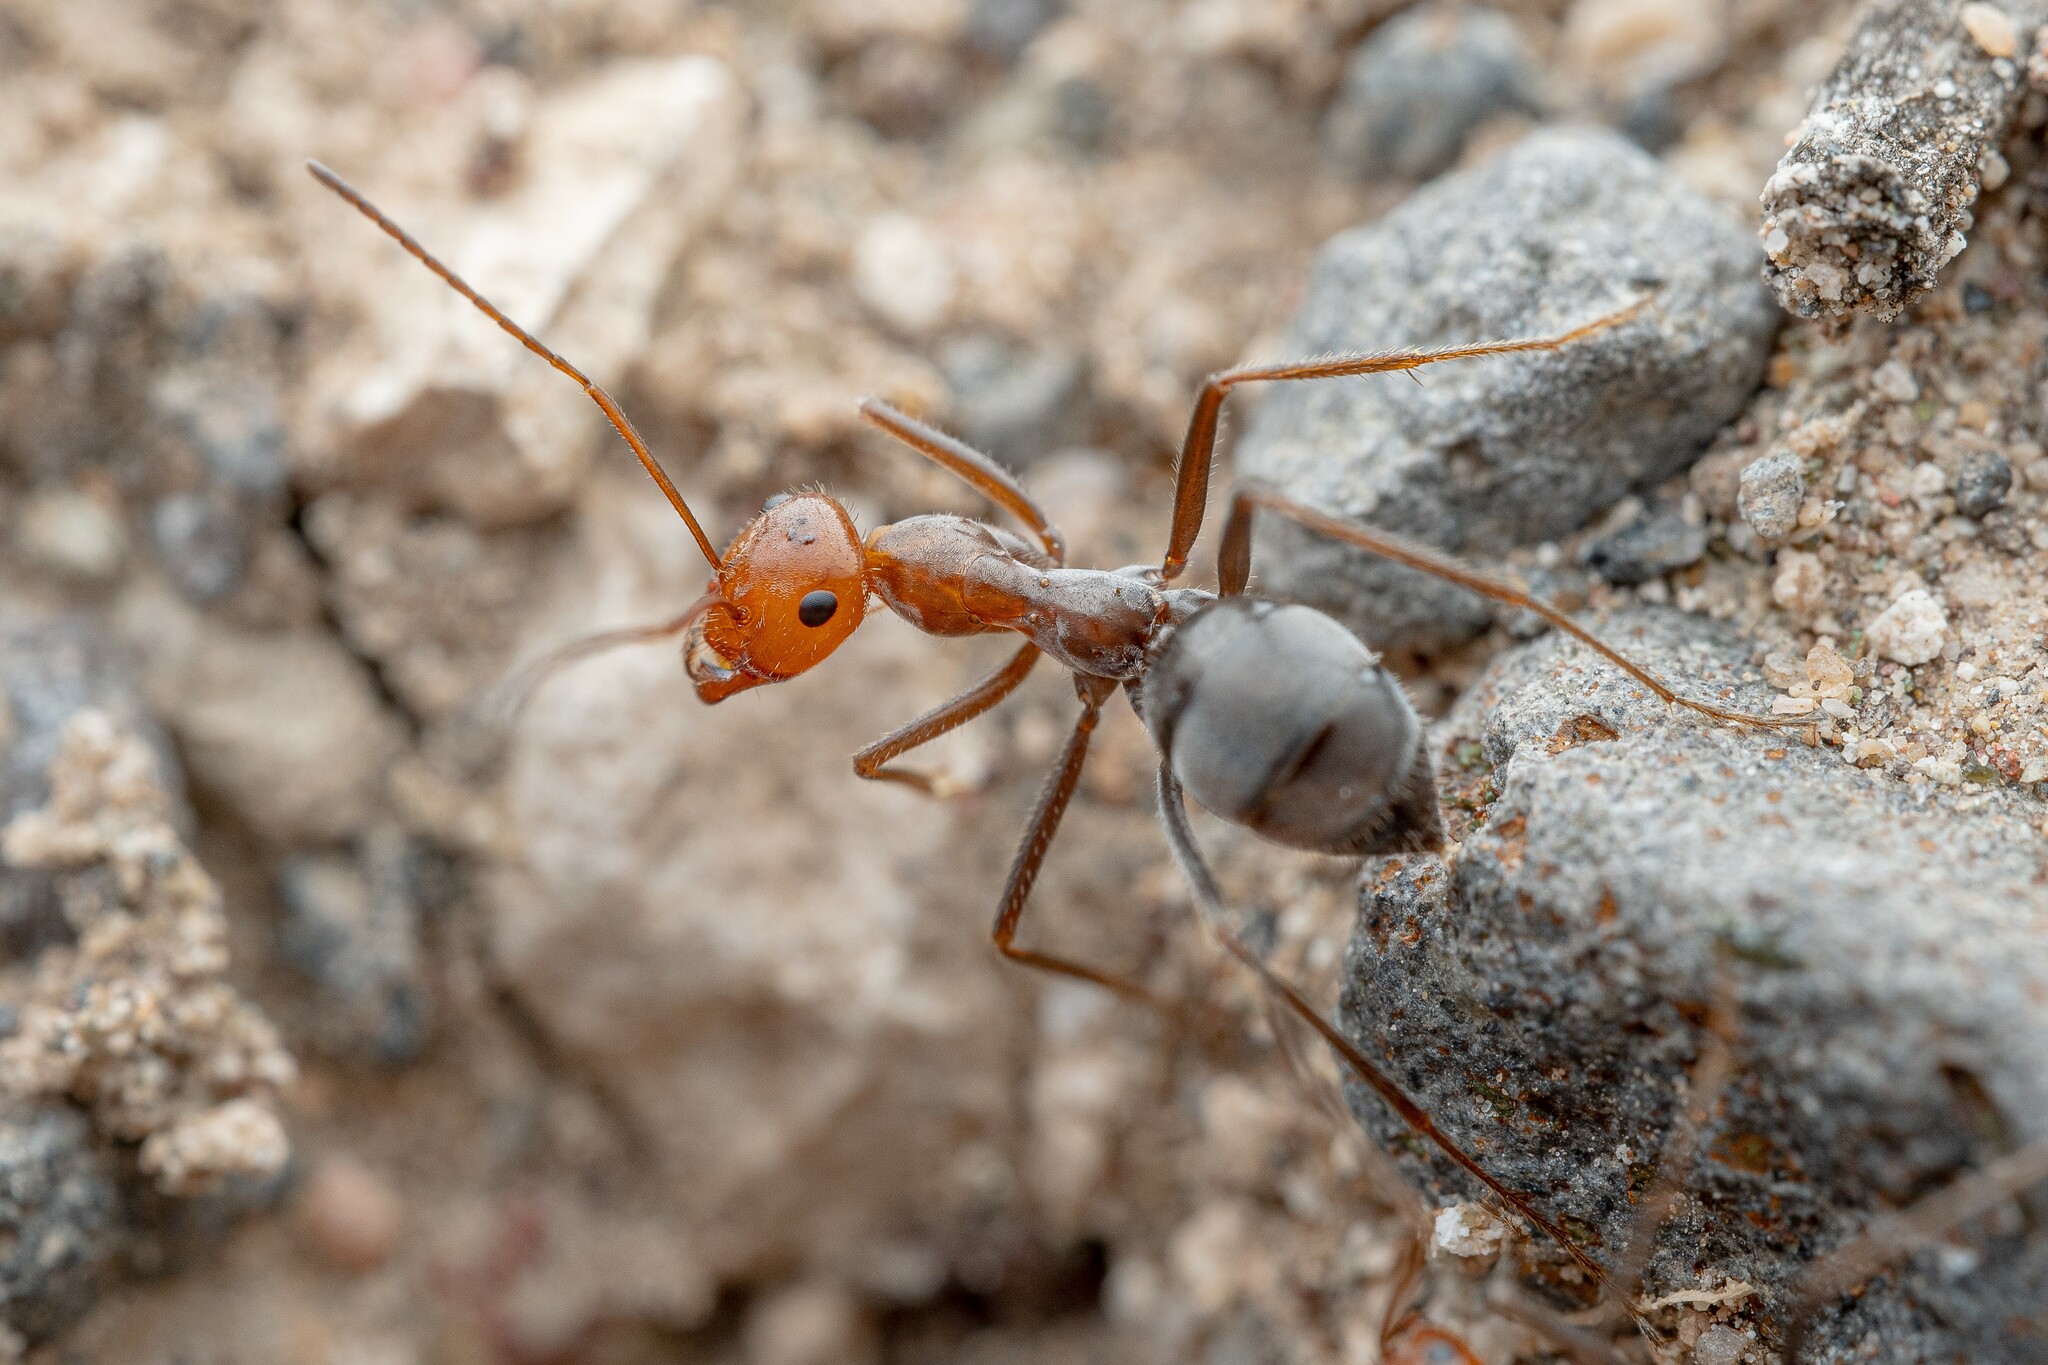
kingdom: Animalia
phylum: Arthropoda
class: Insecta
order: Hymenoptera
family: Formicidae
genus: Myrmecocystus
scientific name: Myrmecocystus placodops
